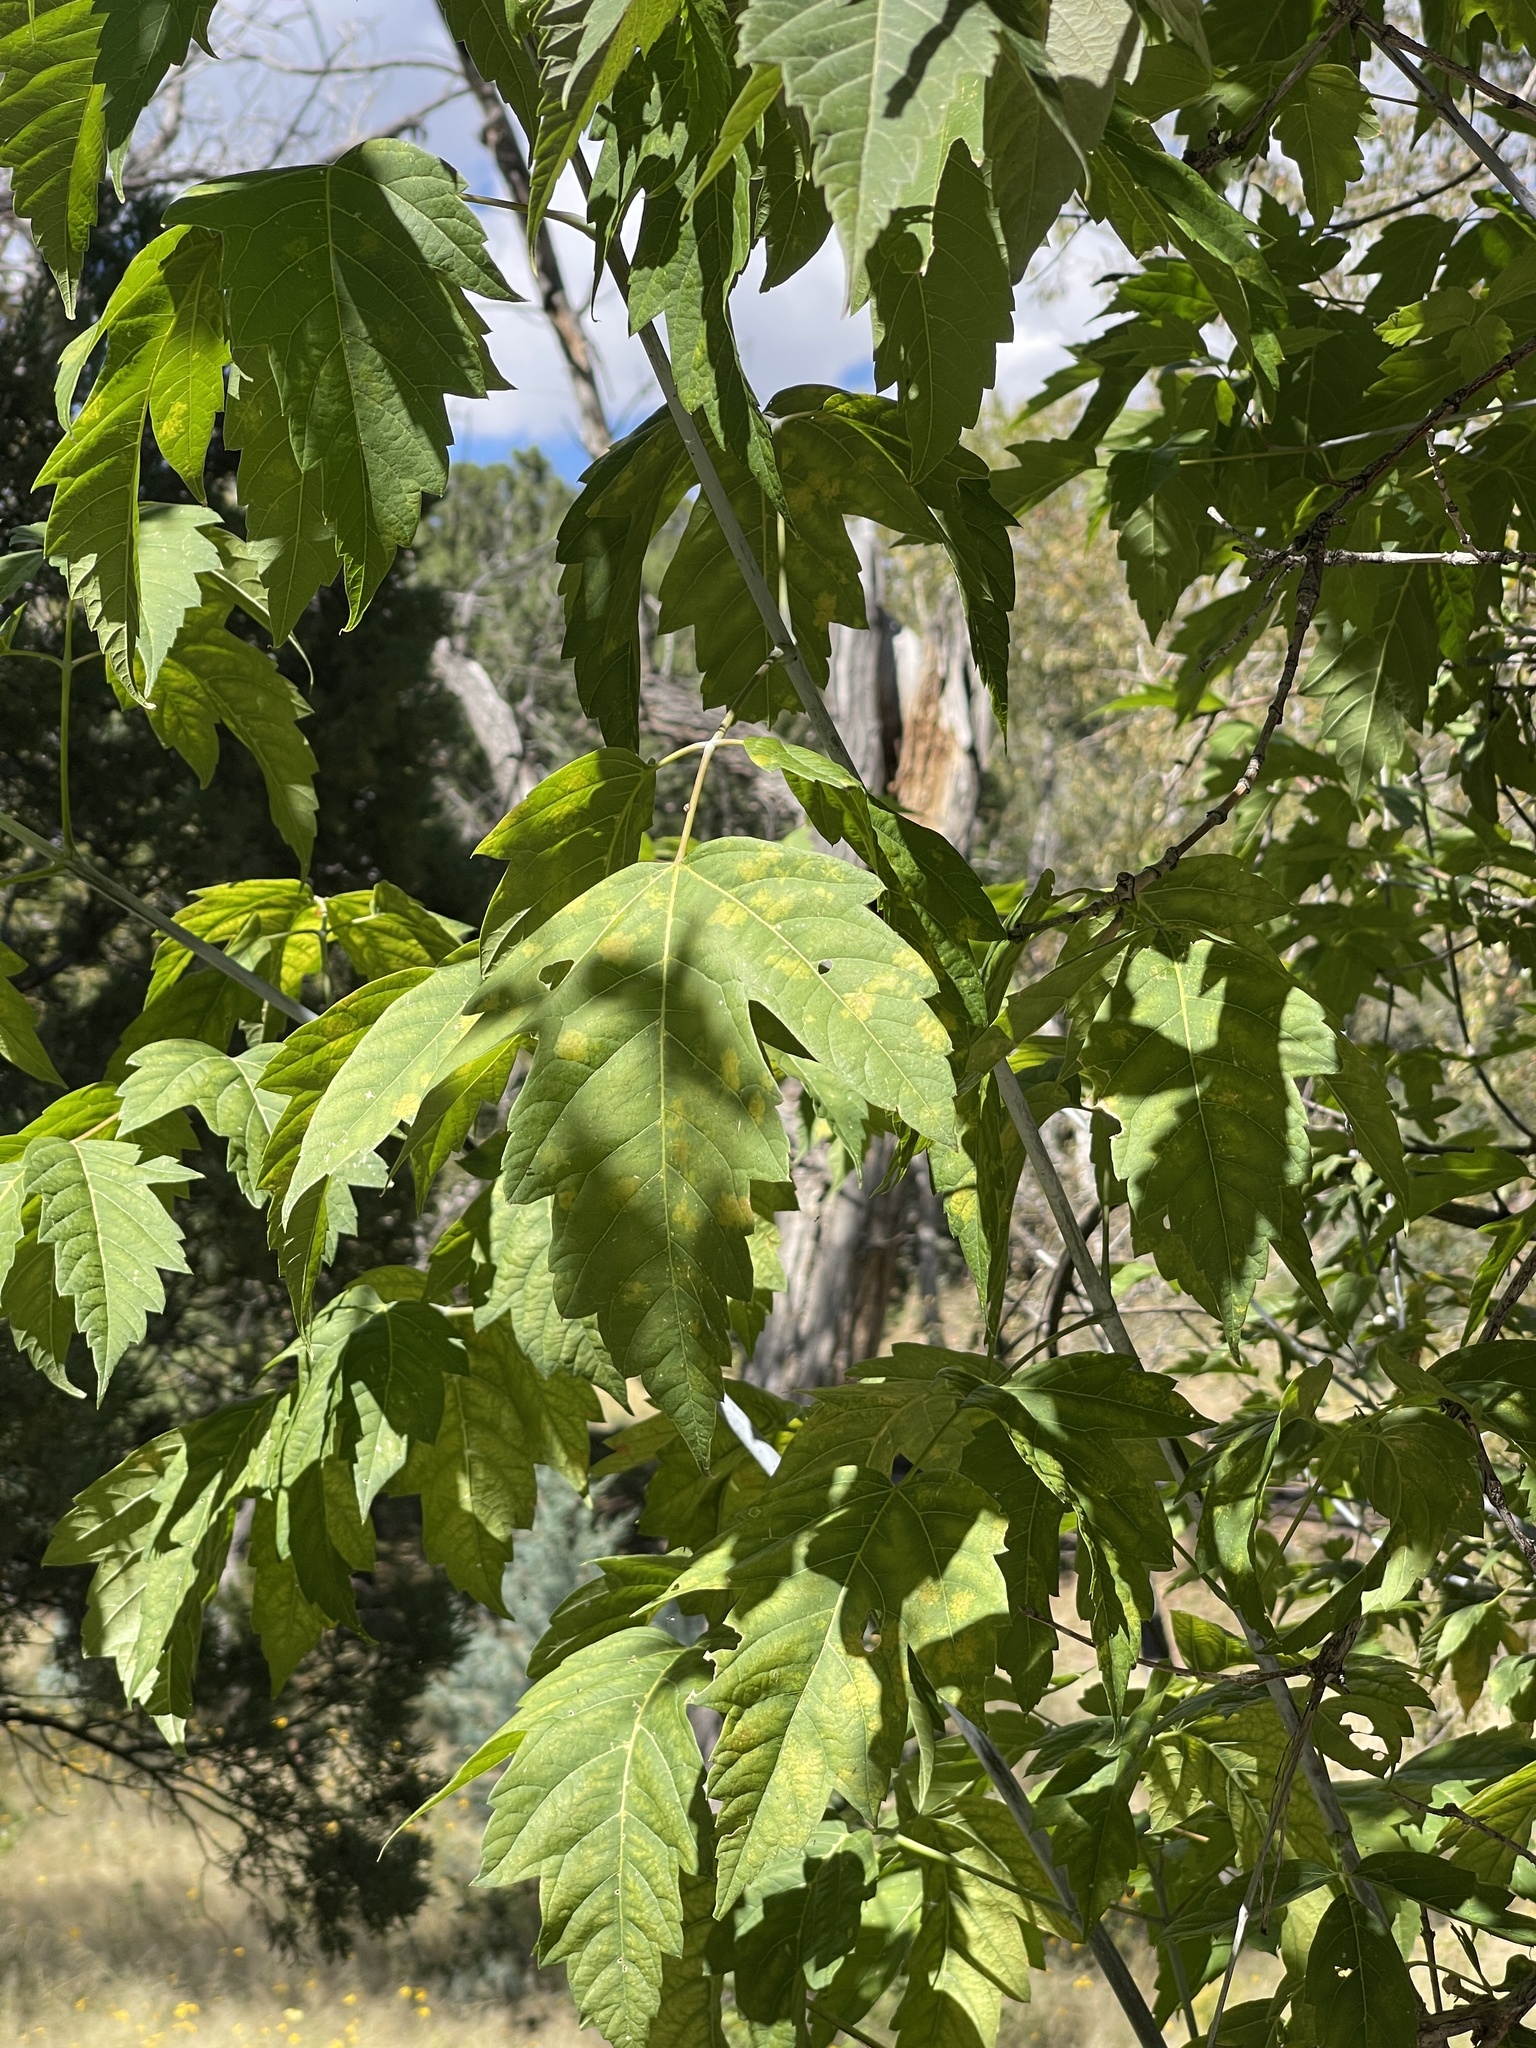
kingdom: Plantae
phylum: Tracheophyta
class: Magnoliopsida
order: Sapindales
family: Sapindaceae
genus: Acer
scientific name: Acer negundo
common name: Ashleaf maple
